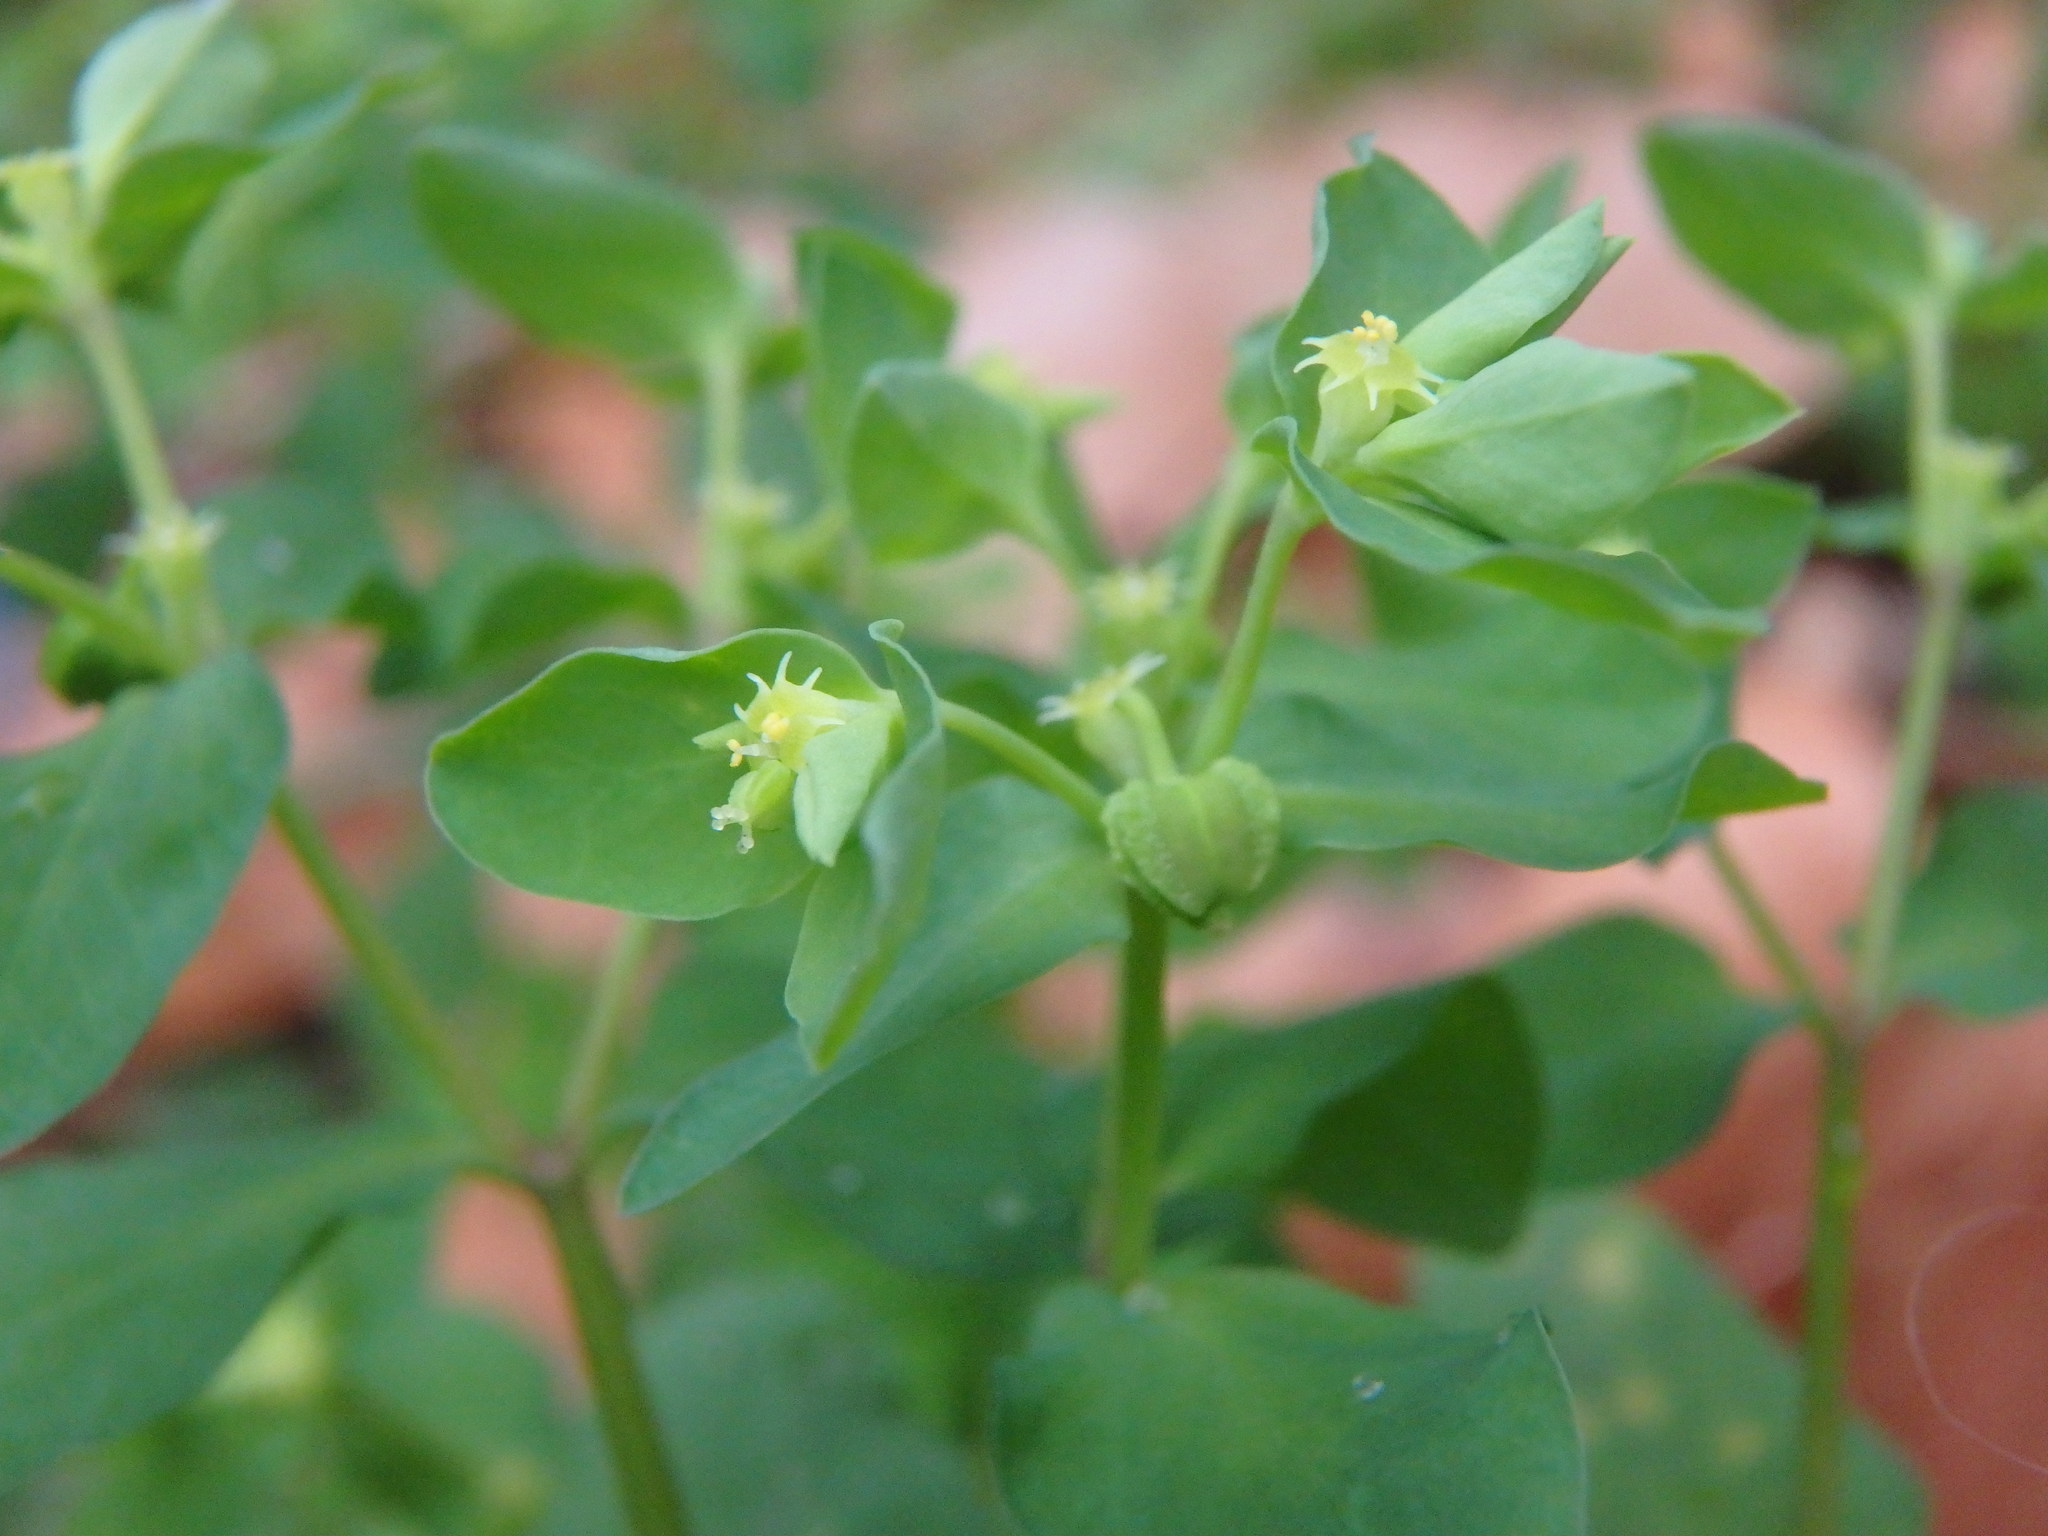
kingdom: Plantae
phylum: Tracheophyta
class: Magnoliopsida
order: Malpighiales
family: Euphorbiaceae
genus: Euphorbia
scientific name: Euphorbia peplus
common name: Petty spurge
